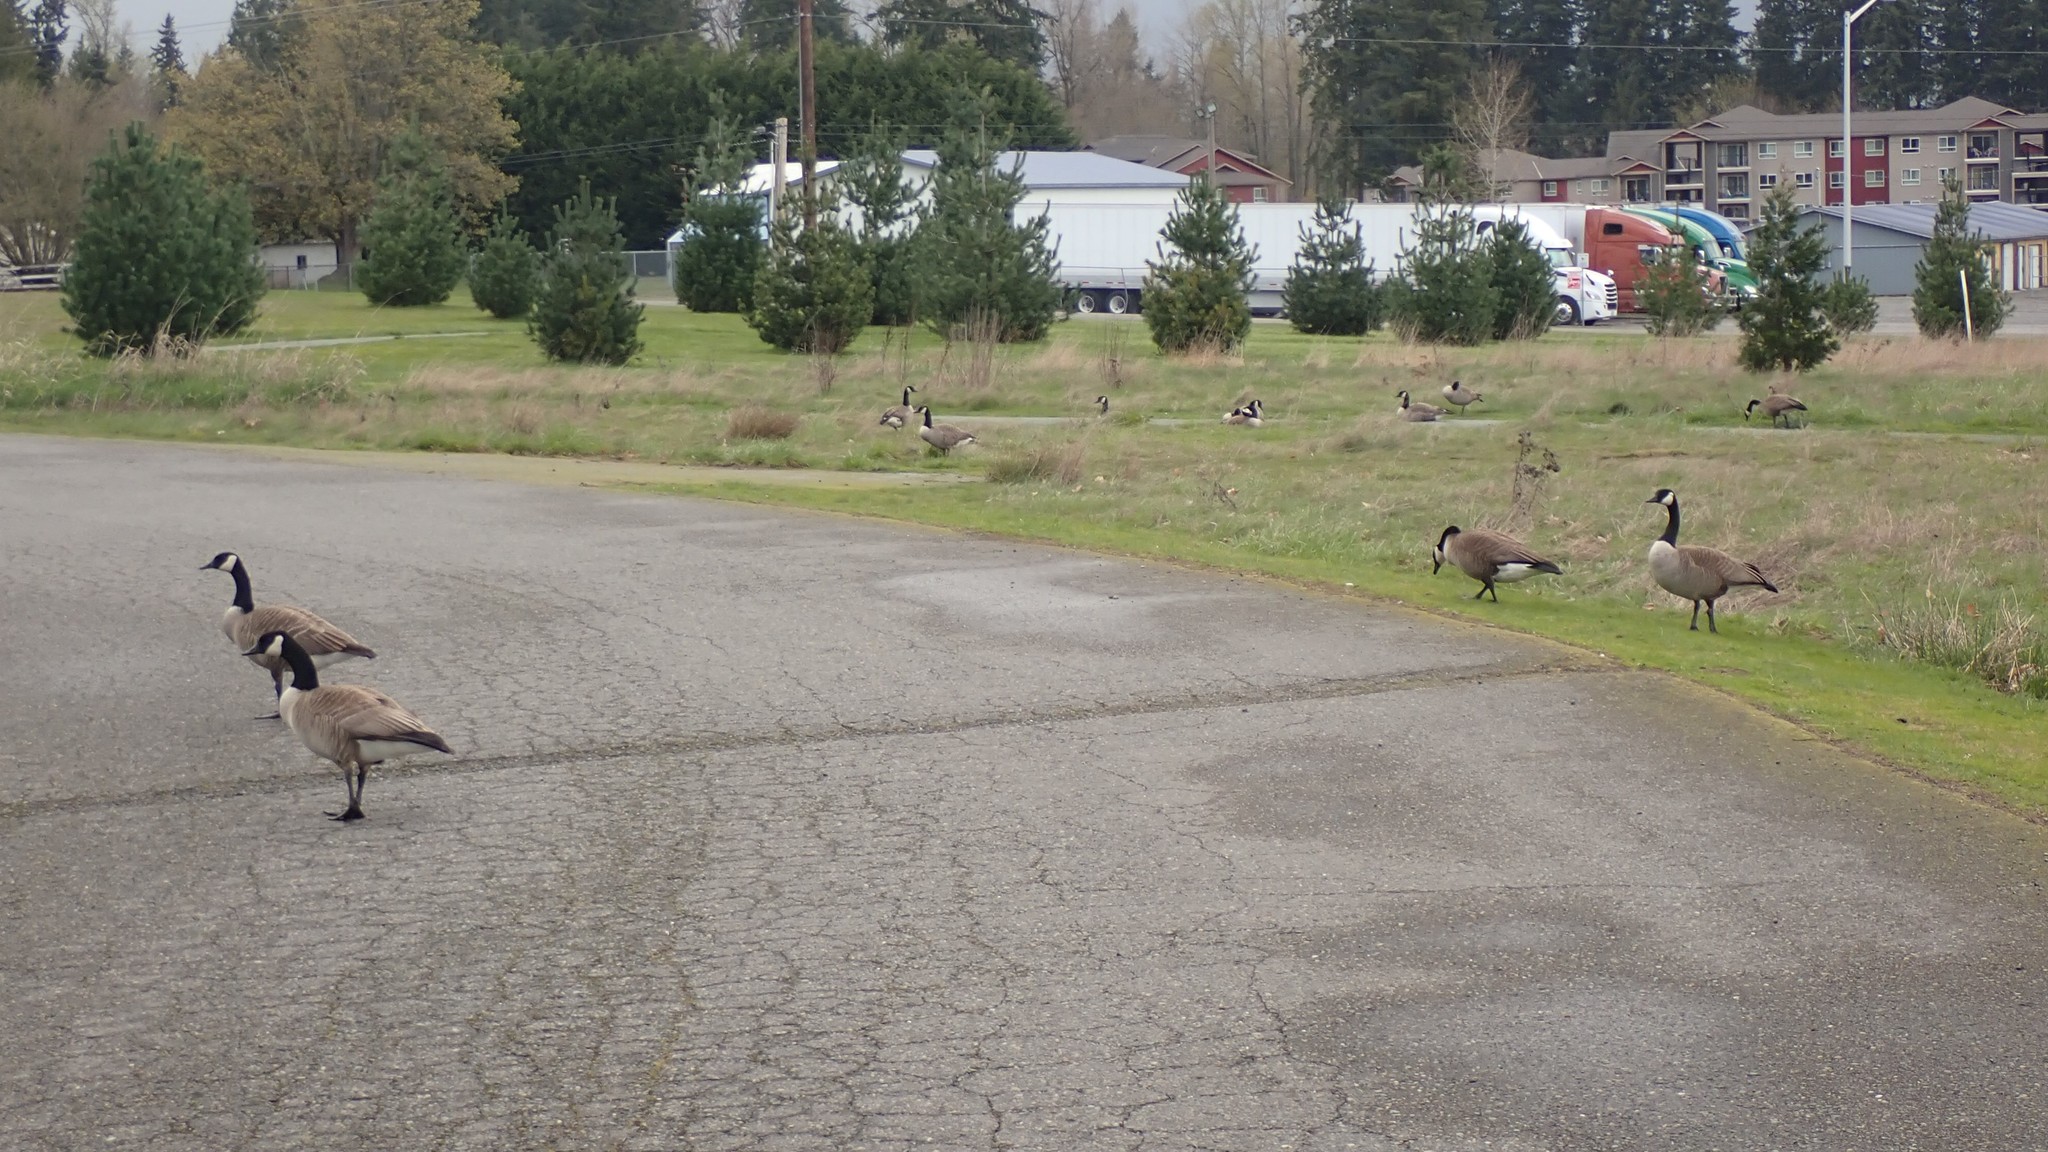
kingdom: Animalia
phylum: Chordata
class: Aves
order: Anseriformes
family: Anatidae
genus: Branta
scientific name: Branta canadensis
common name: Canada goose
